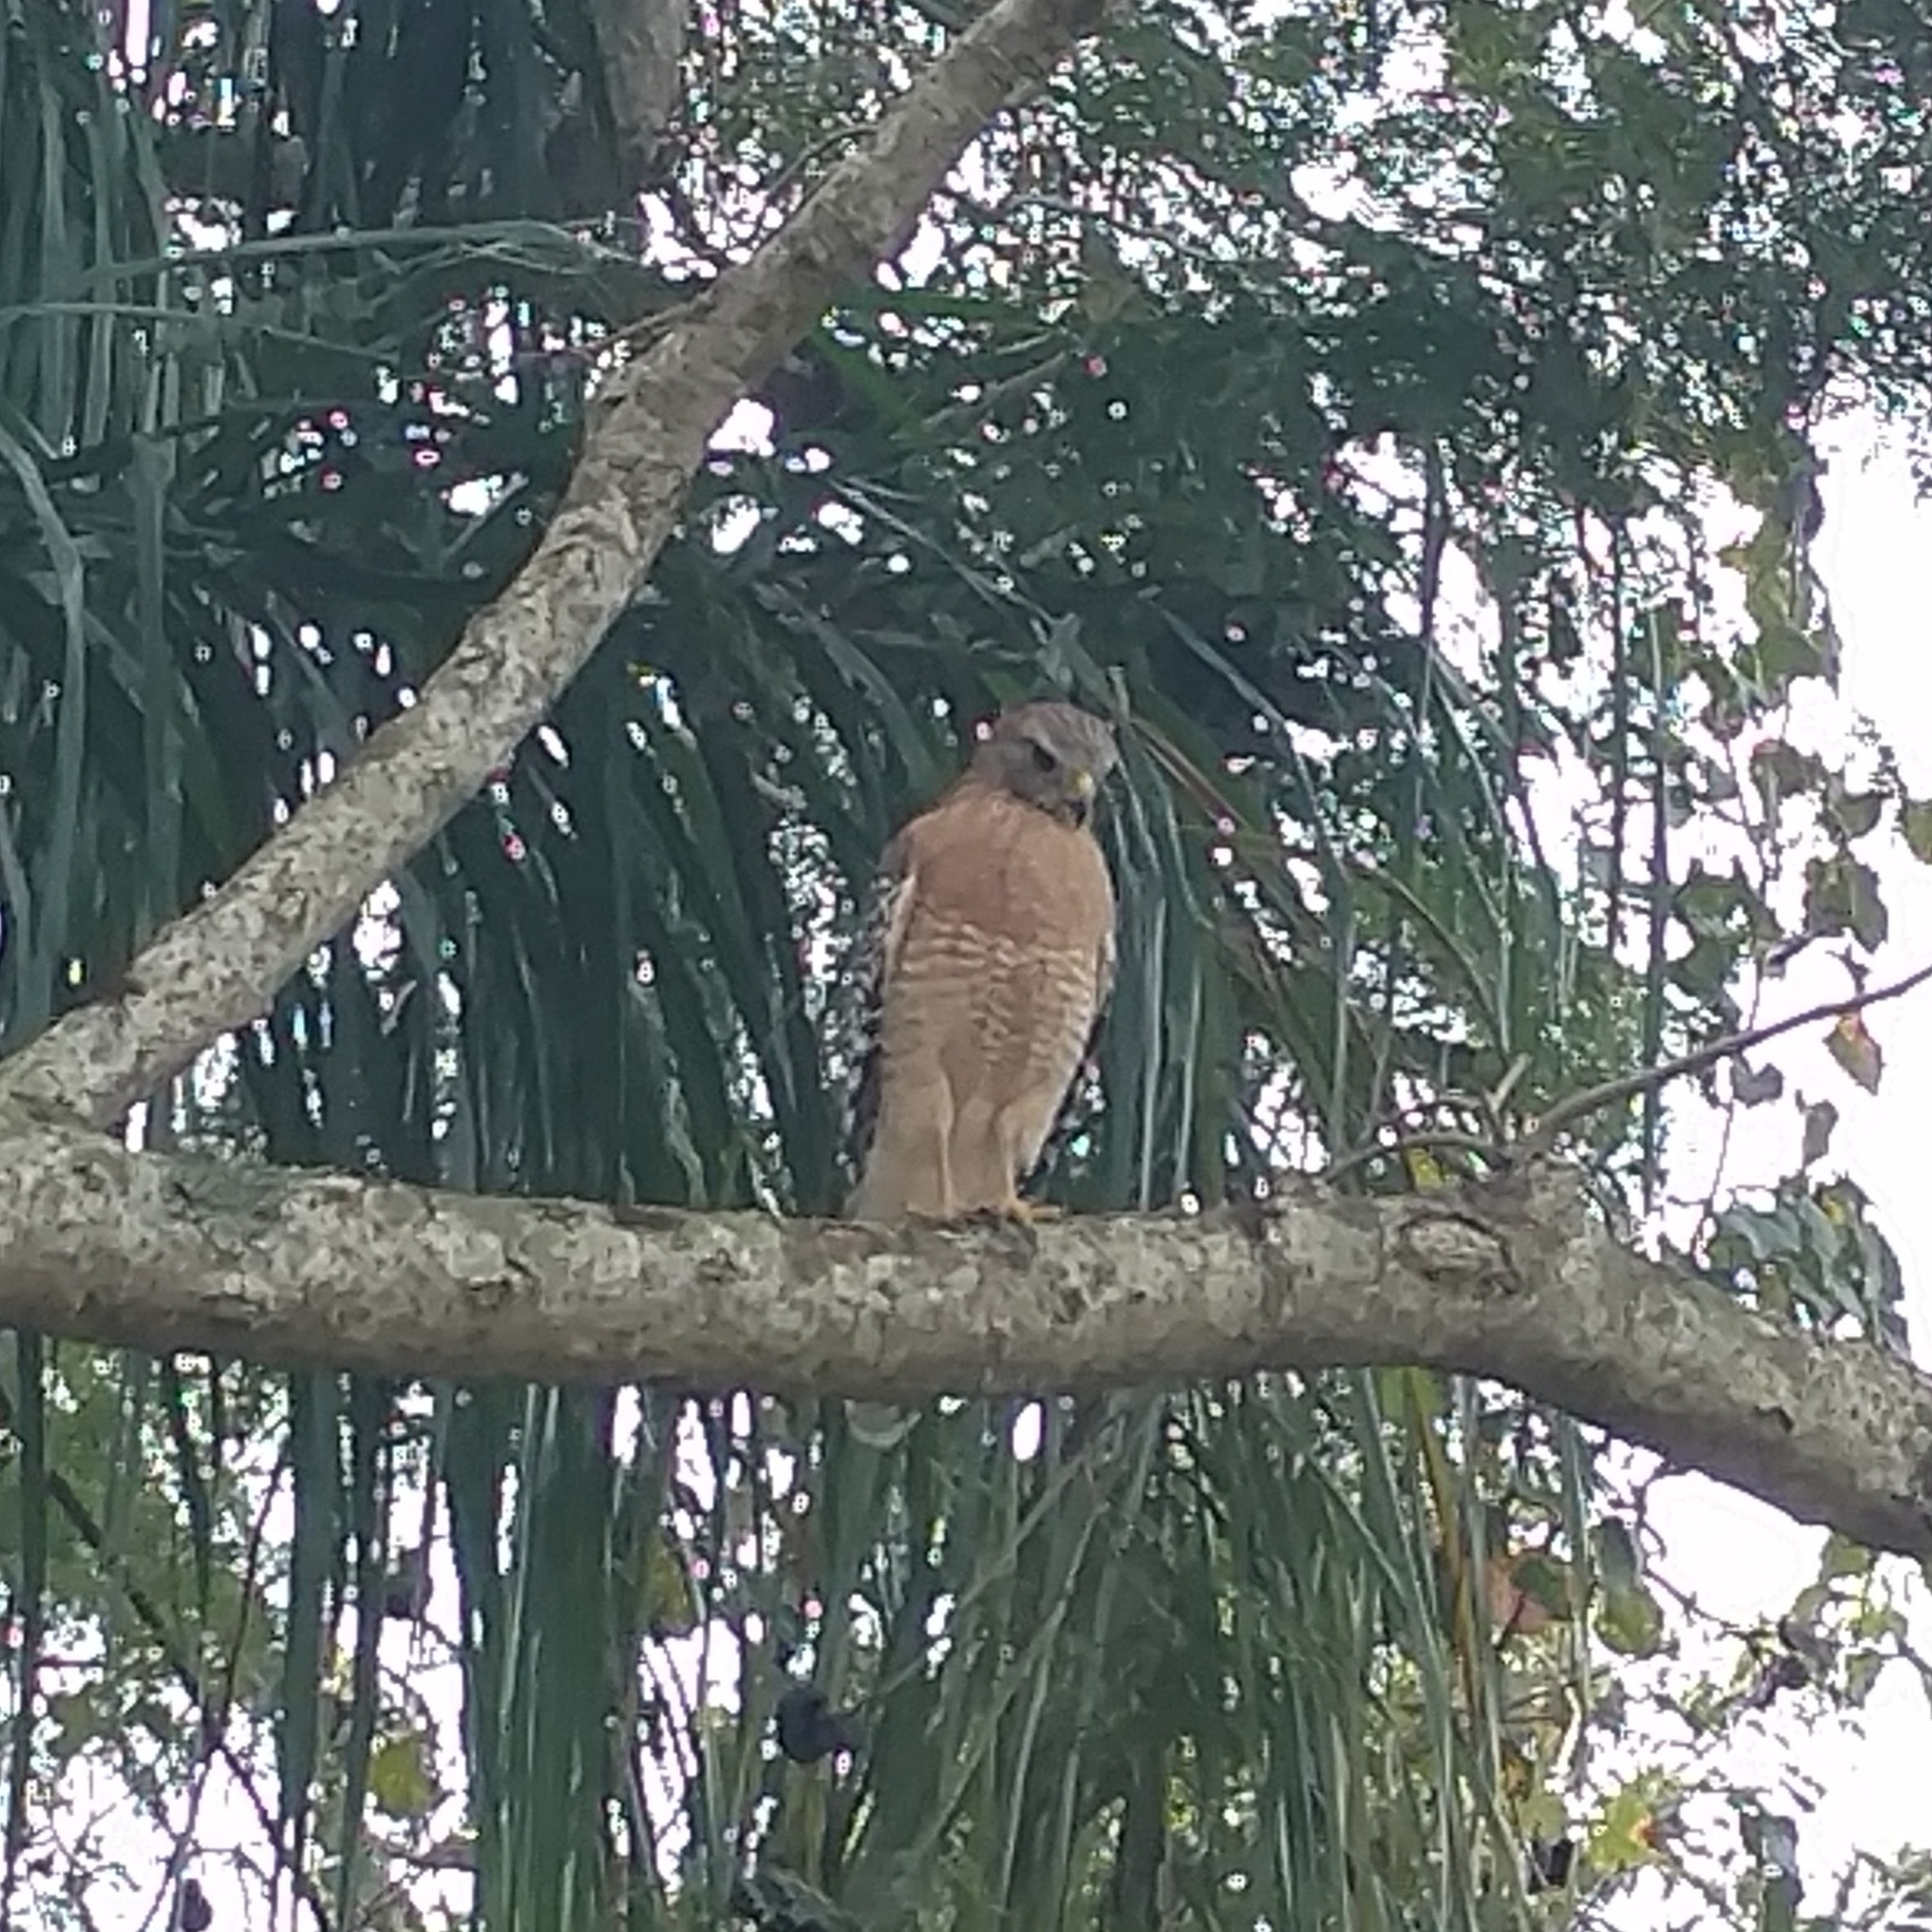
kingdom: Animalia
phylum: Chordata
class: Aves
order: Accipitriformes
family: Accipitridae
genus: Buteo
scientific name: Buteo lineatus
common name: Red-shouldered hawk
